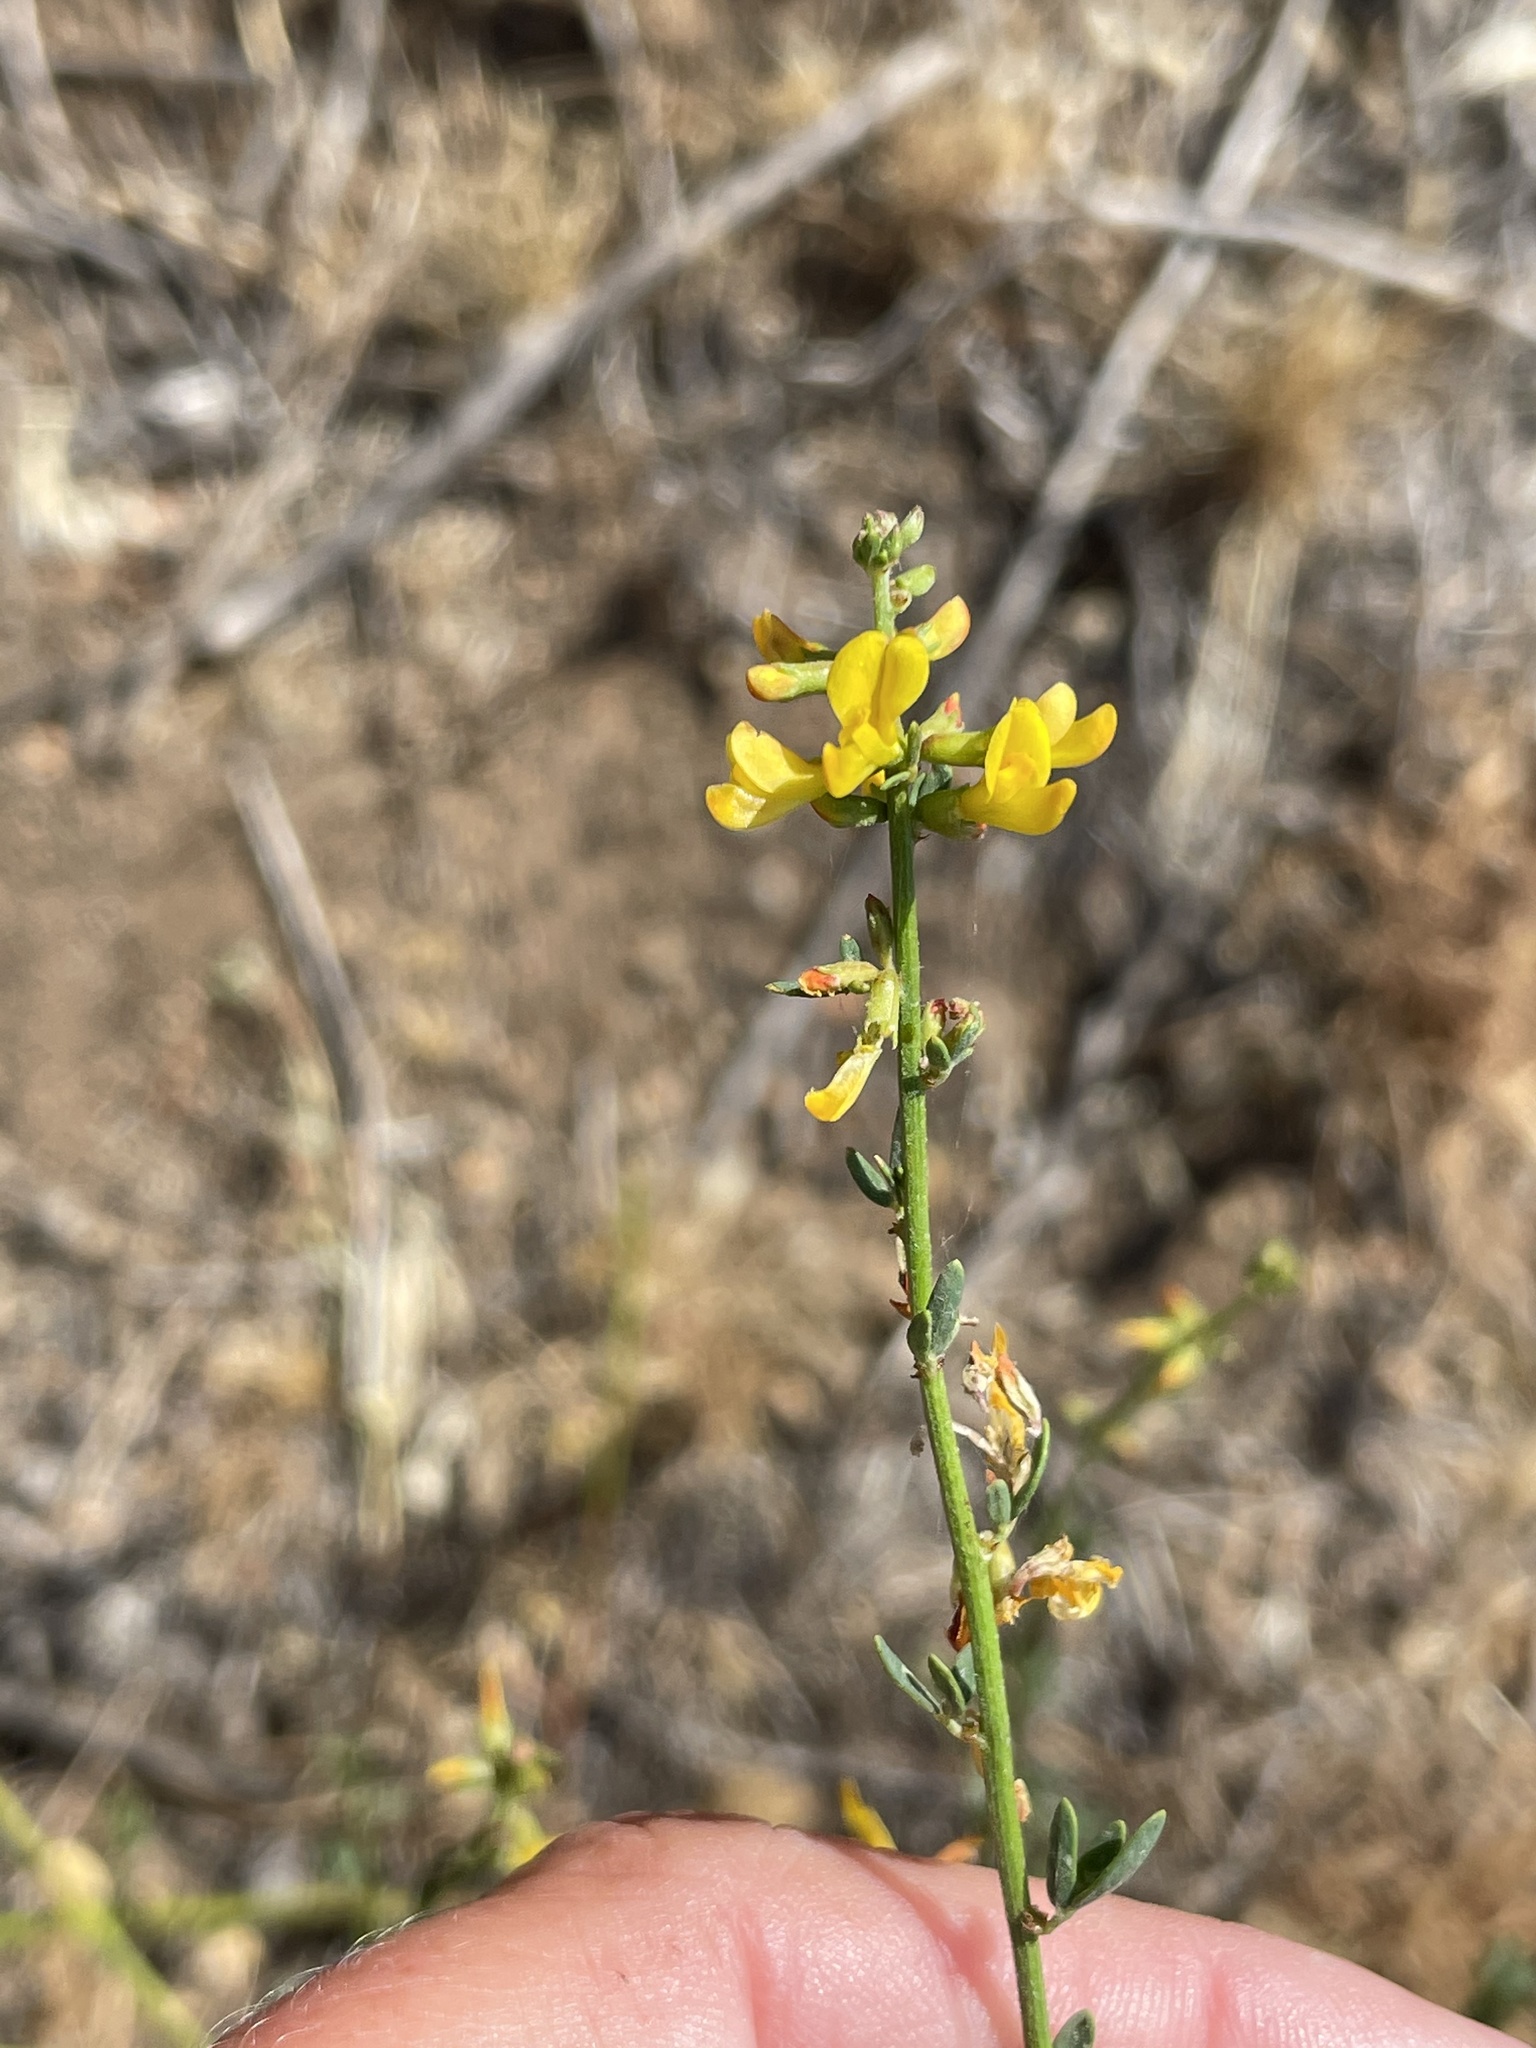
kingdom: Plantae
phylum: Tracheophyta
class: Magnoliopsida
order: Fabales
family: Fabaceae
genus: Acmispon
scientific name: Acmispon glaber
